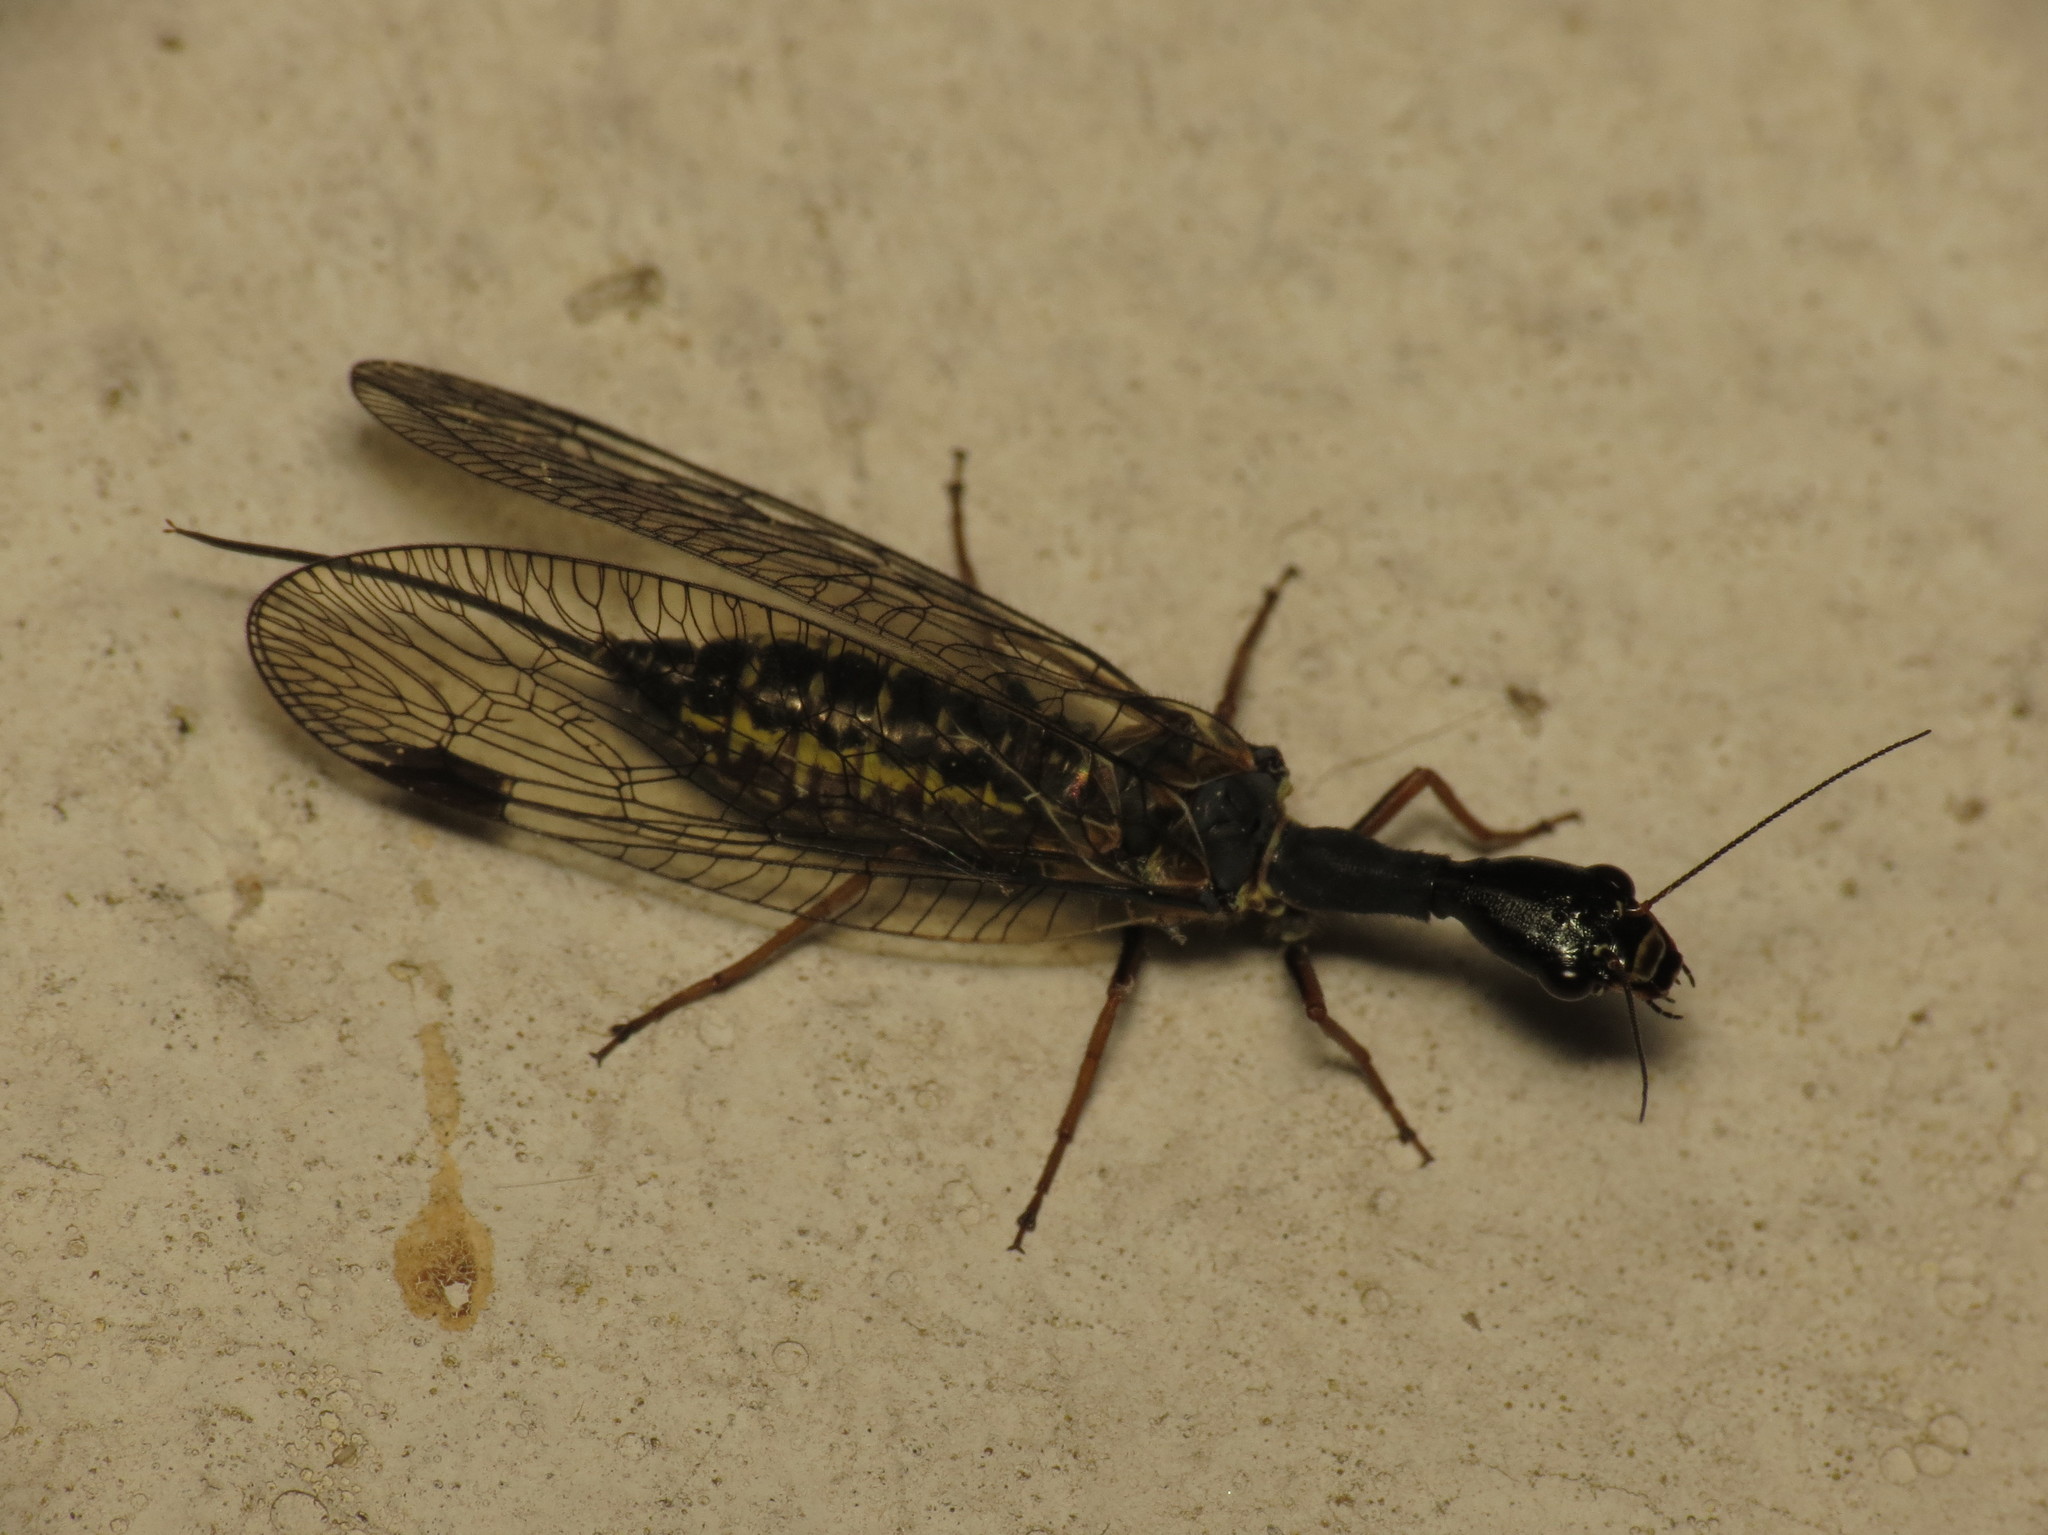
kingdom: Animalia
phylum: Arthropoda
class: Insecta
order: Raphidioptera
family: Raphidiidae
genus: Phaeostigma
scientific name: Phaeostigma notatum
